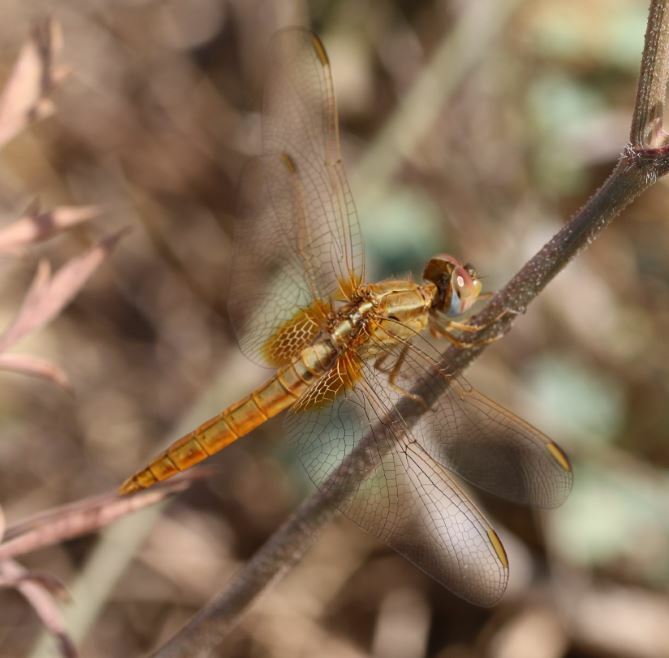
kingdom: Animalia
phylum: Arthropoda
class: Insecta
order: Odonata
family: Libellulidae
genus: Crocothemis
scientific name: Crocothemis erythraea
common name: Scarlet dragonfly
